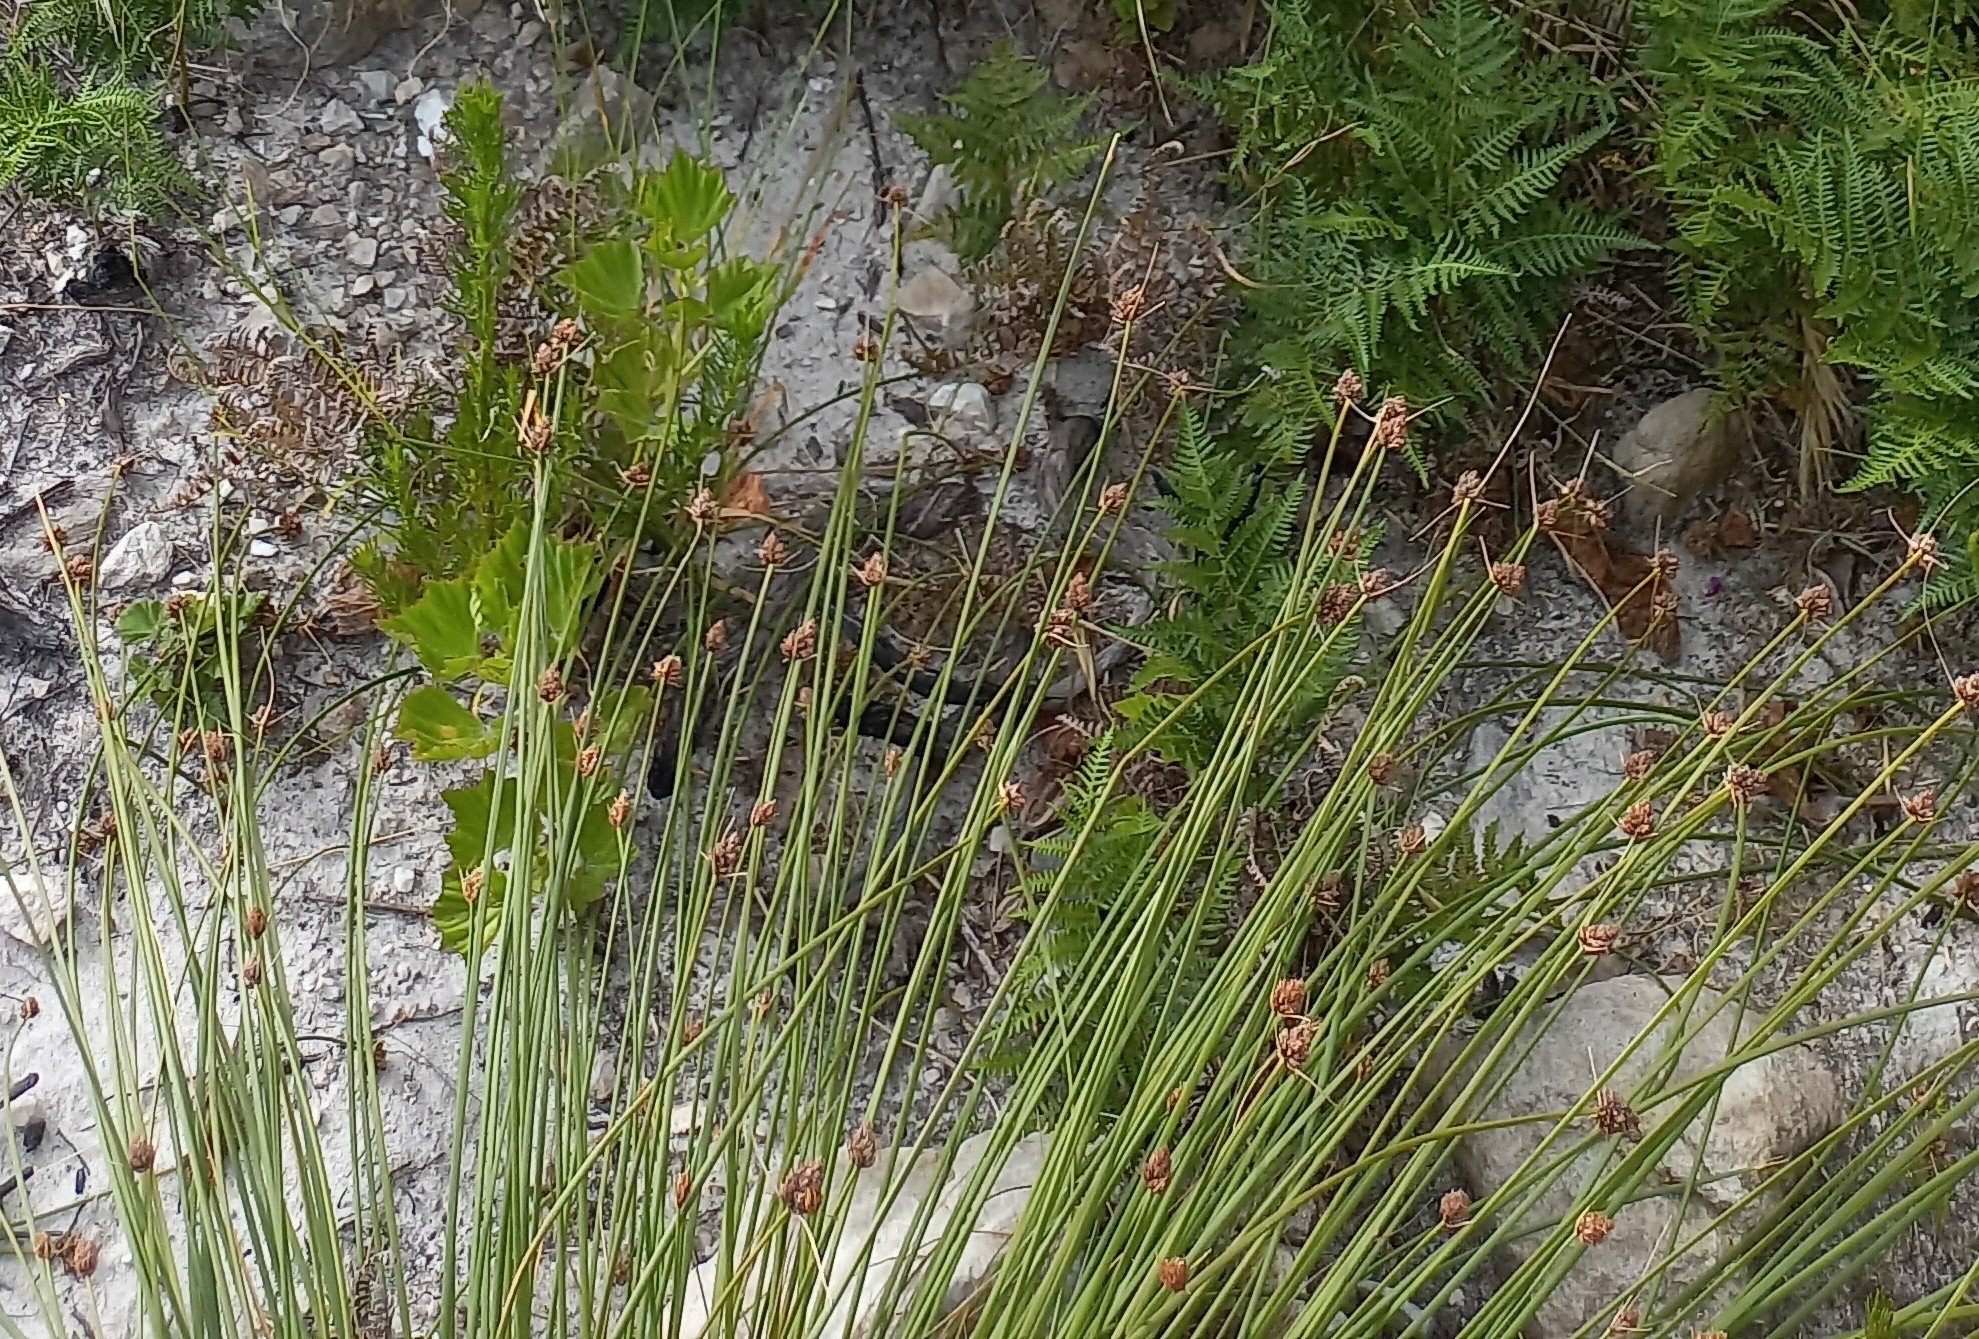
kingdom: Plantae
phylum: Tracheophyta
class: Liliopsida
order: Poales
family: Cyperaceae
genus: Ficinia
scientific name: Ficinia brevifolia
